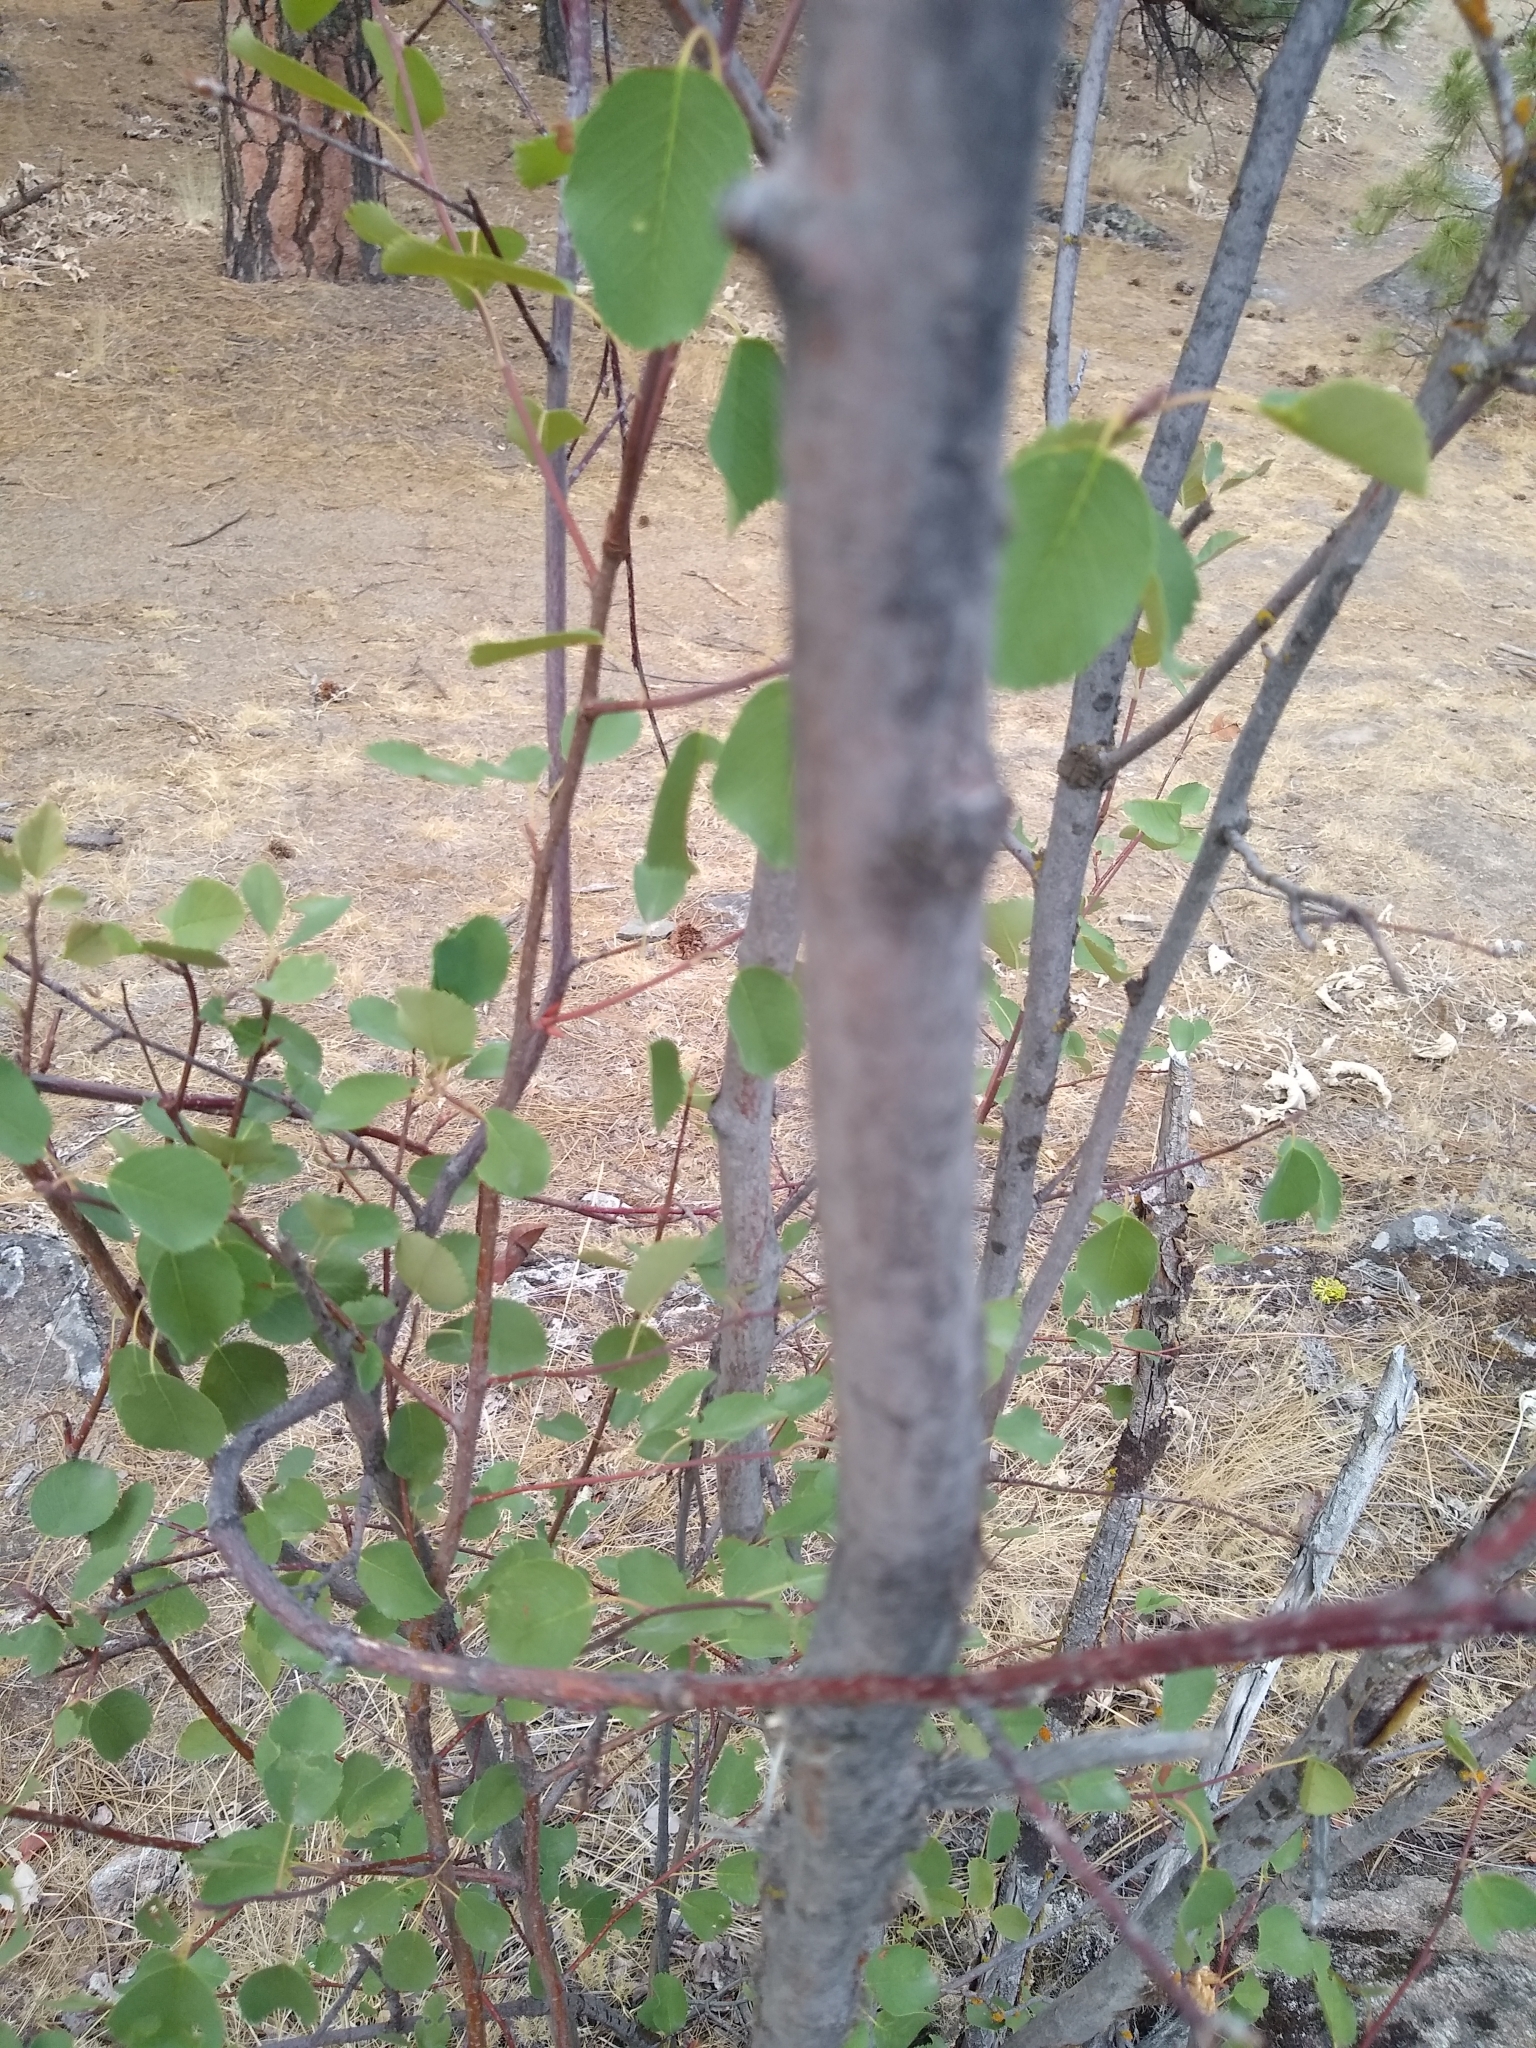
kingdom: Plantae
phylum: Tracheophyta
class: Magnoliopsida
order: Rosales
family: Rosaceae
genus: Amelanchier
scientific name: Amelanchier alnifolia
